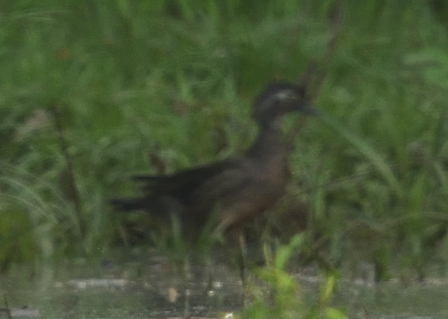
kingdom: Animalia
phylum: Chordata
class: Aves
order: Anseriformes
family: Anatidae
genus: Aix
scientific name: Aix sponsa
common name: Wood duck
